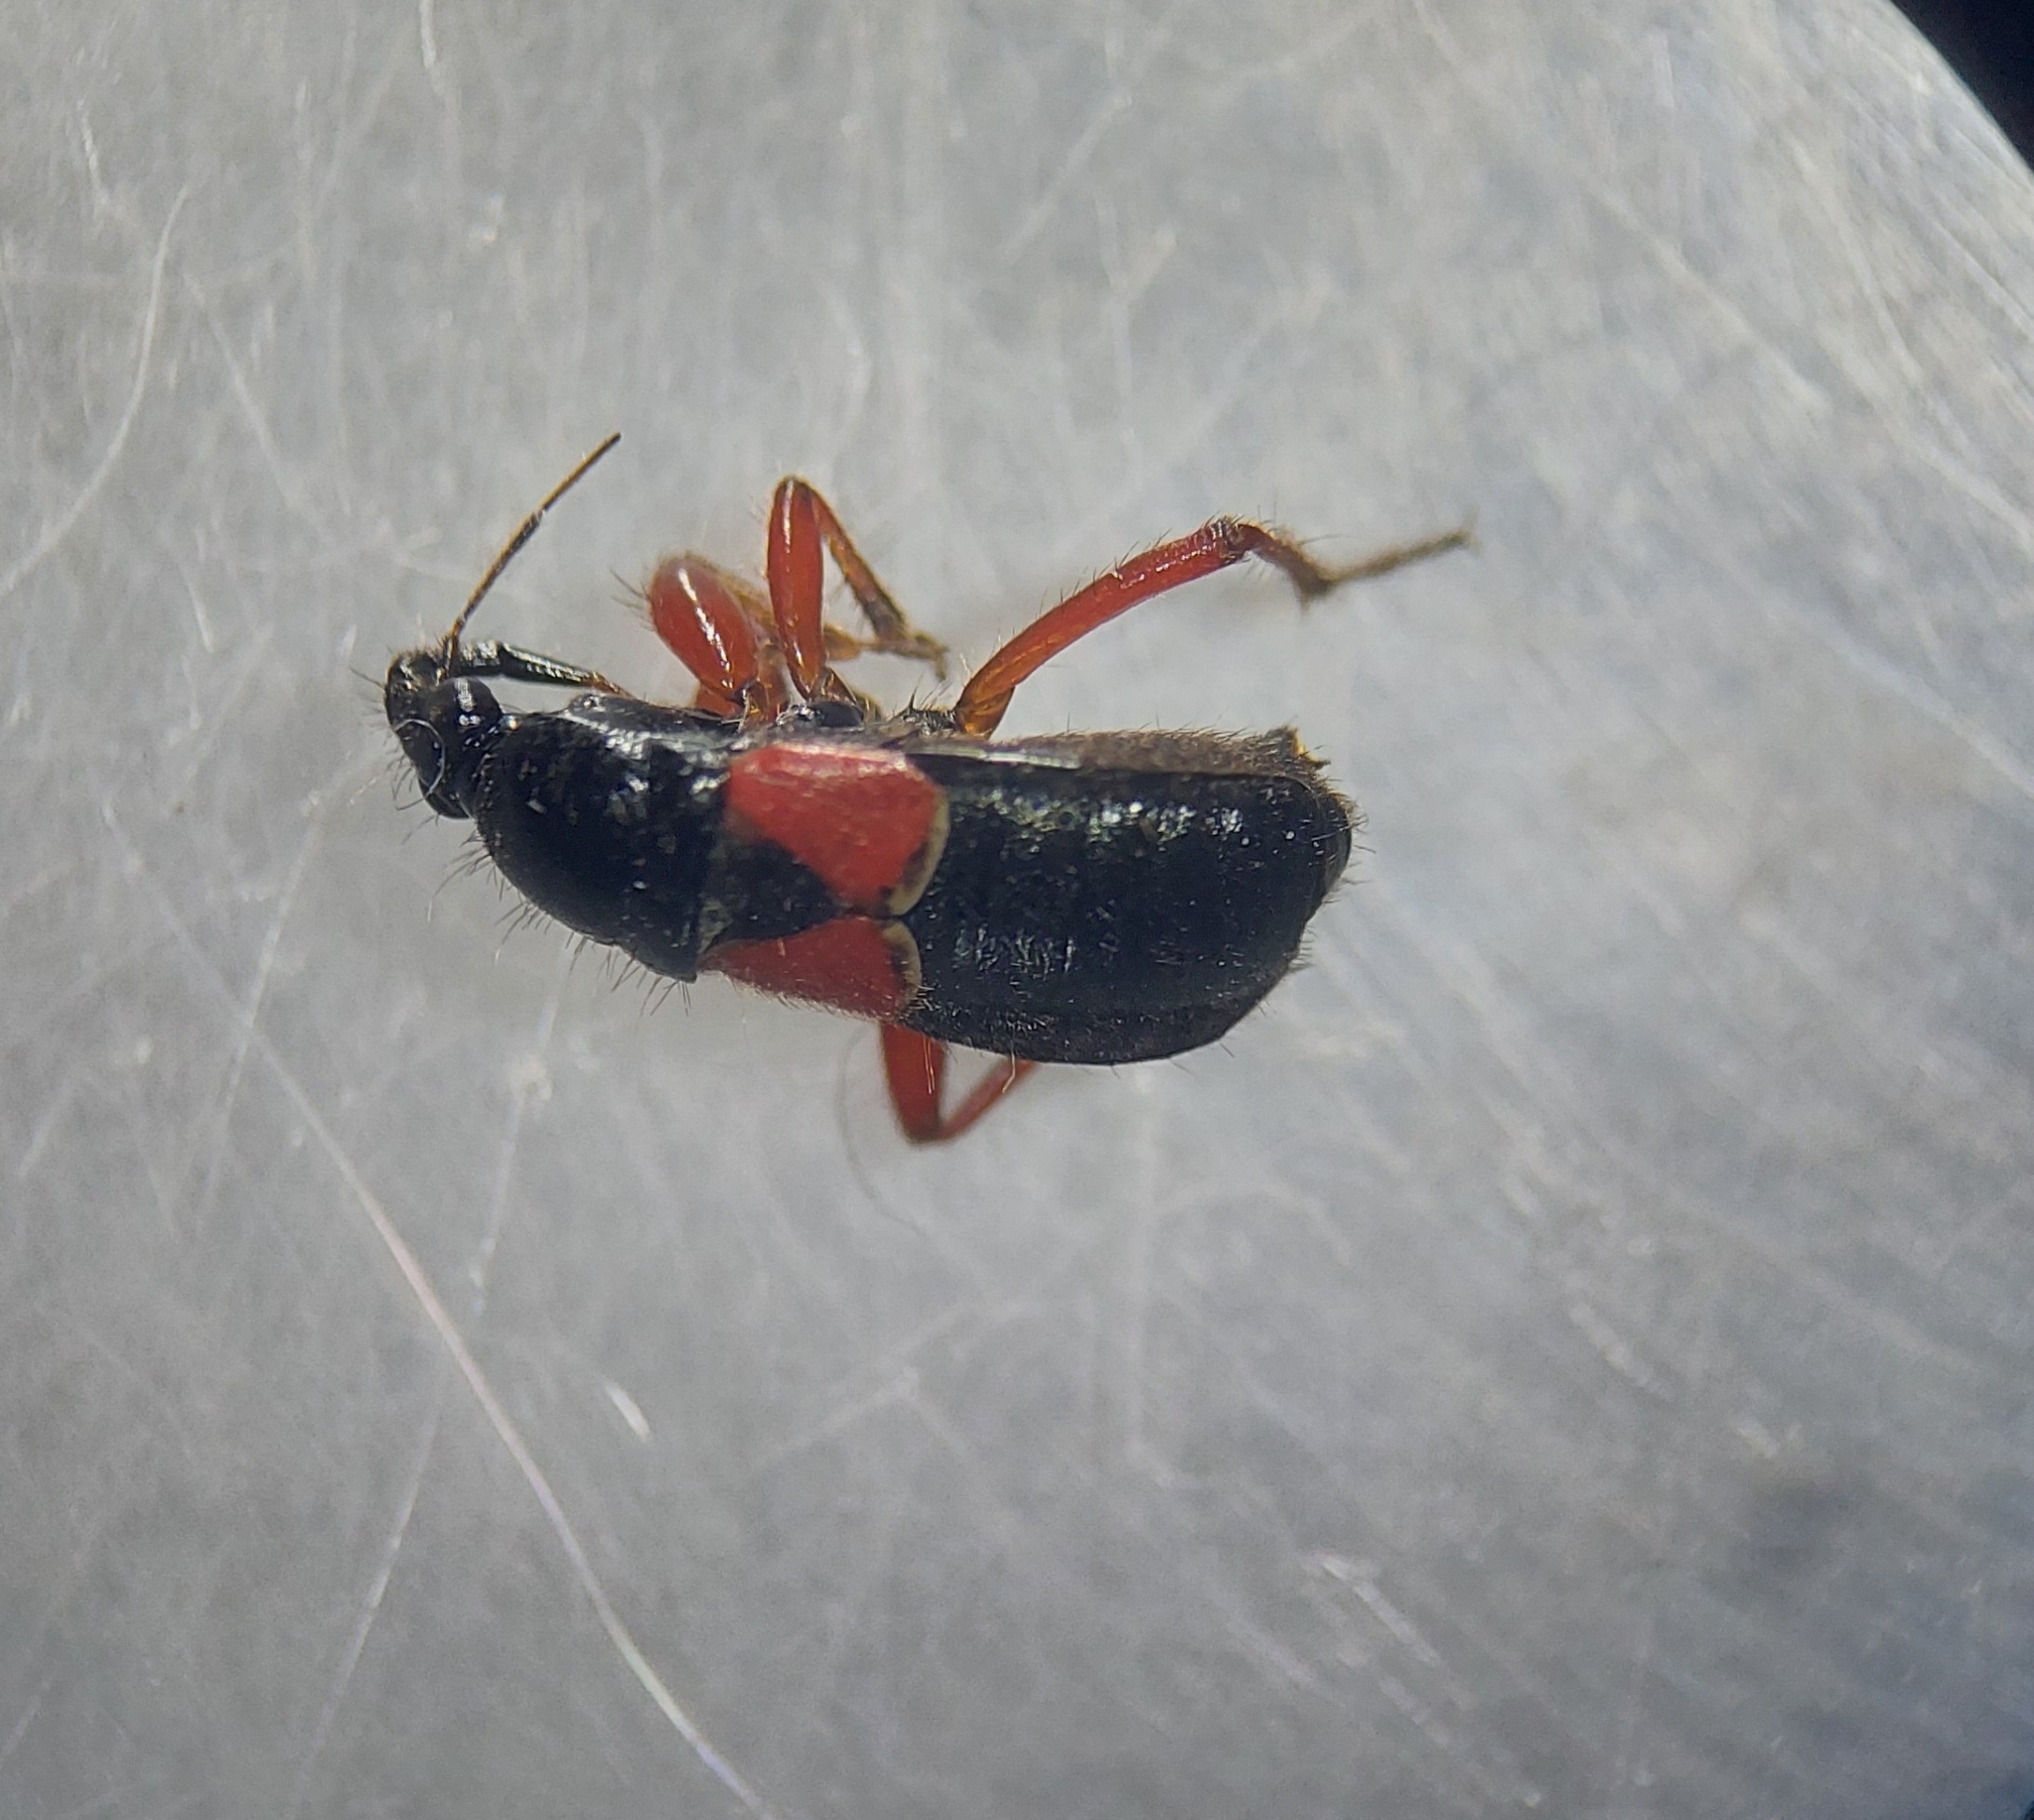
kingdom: Animalia
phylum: Arthropoda
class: Insecta
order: Hemiptera
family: Nabidae
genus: Prostemma
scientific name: Prostemma guttula
